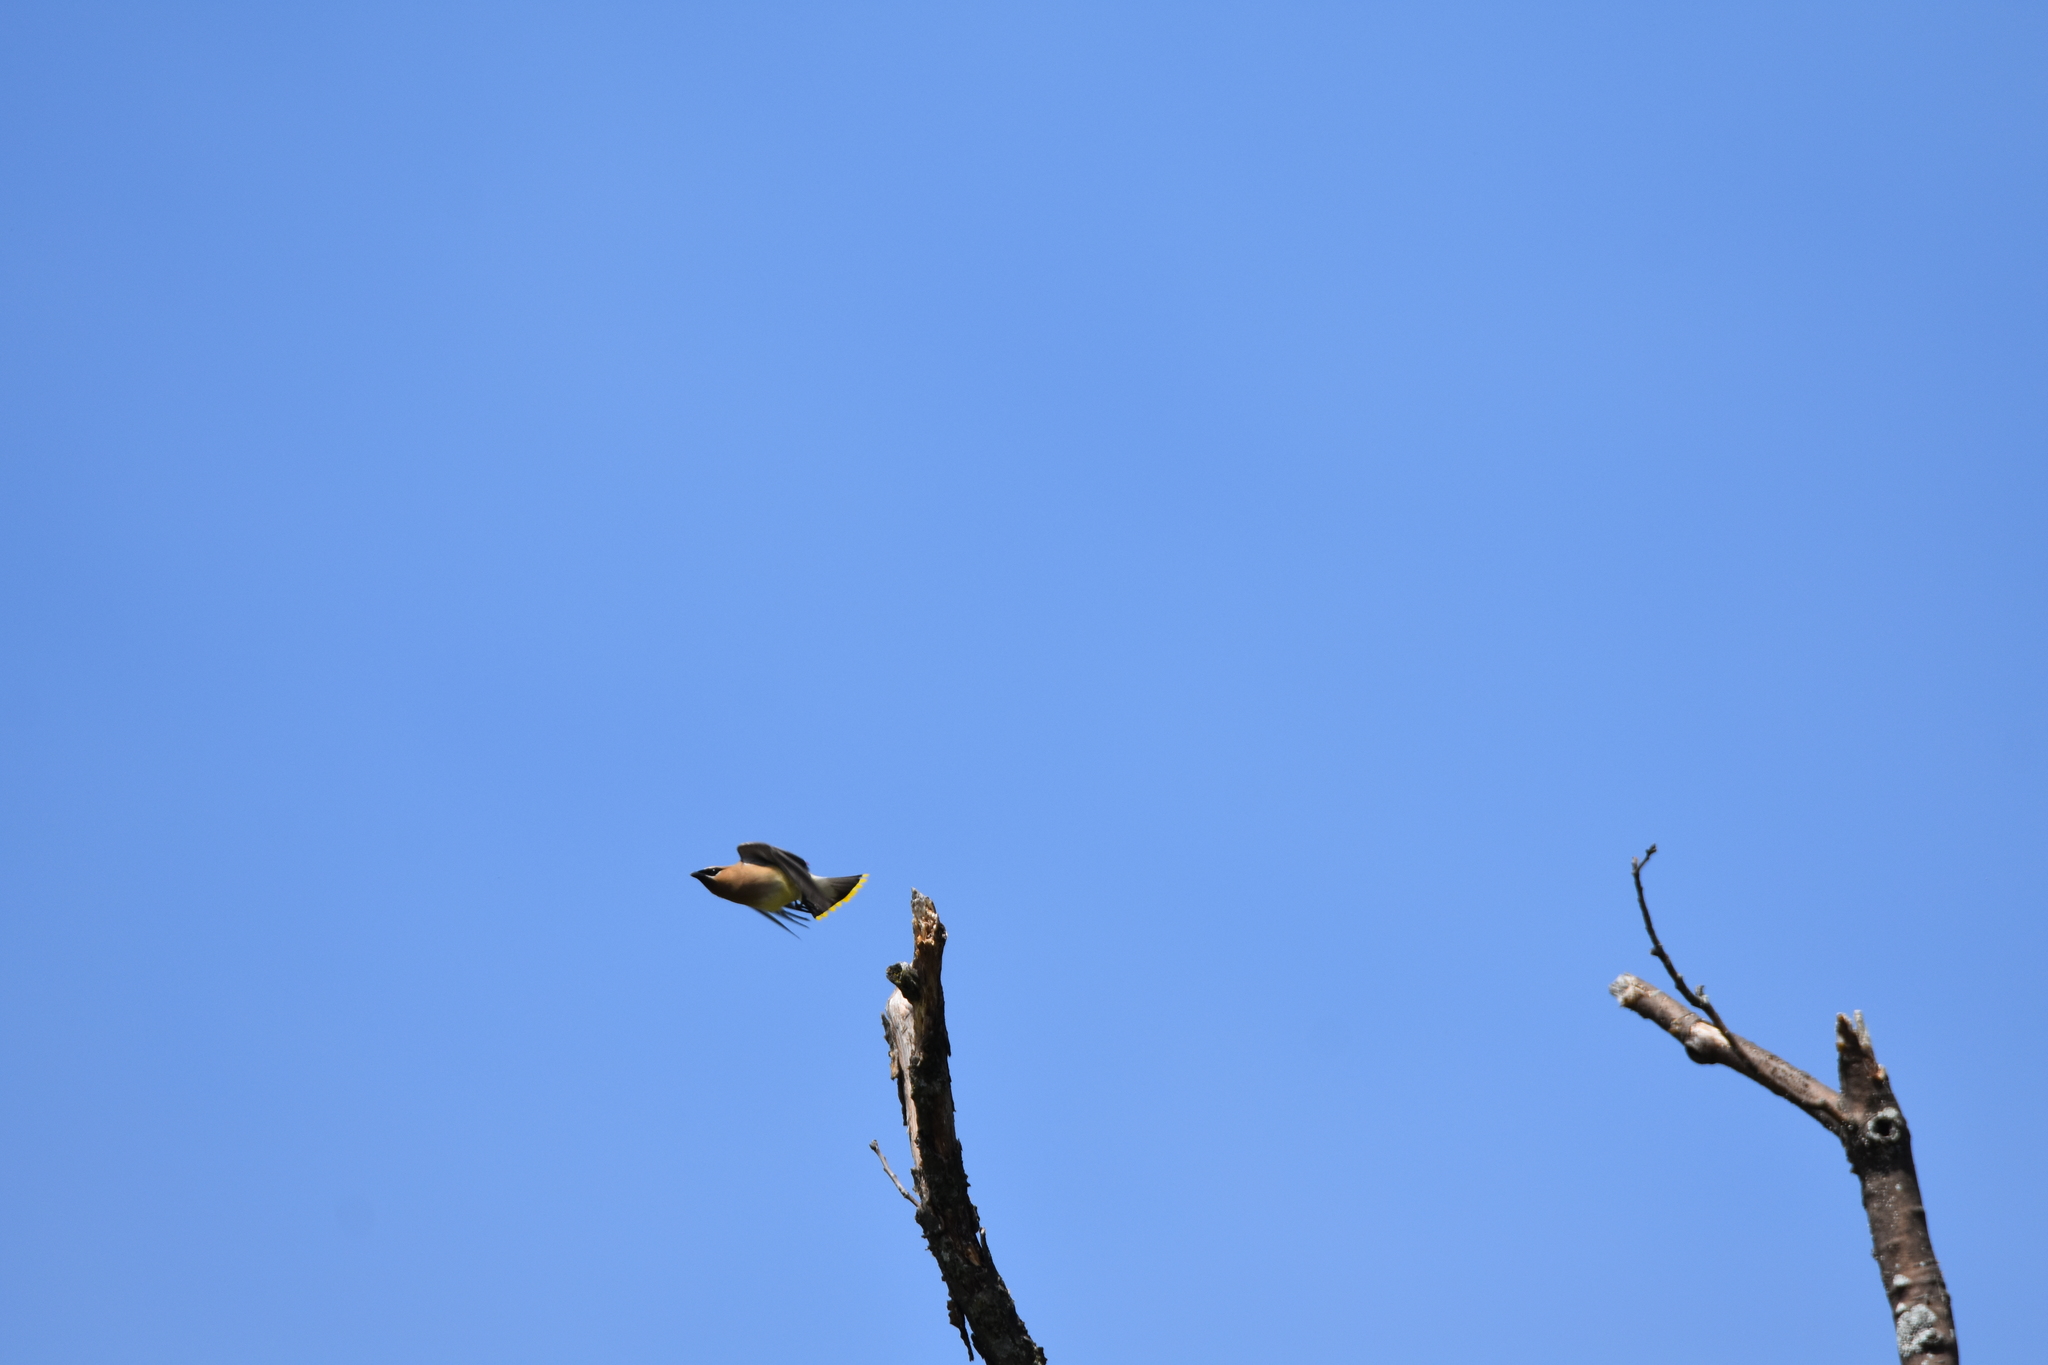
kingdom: Animalia
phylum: Chordata
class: Aves
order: Passeriformes
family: Bombycillidae
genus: Bombycilla
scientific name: Bombycilla cedrorum
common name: Cedar waxwing
